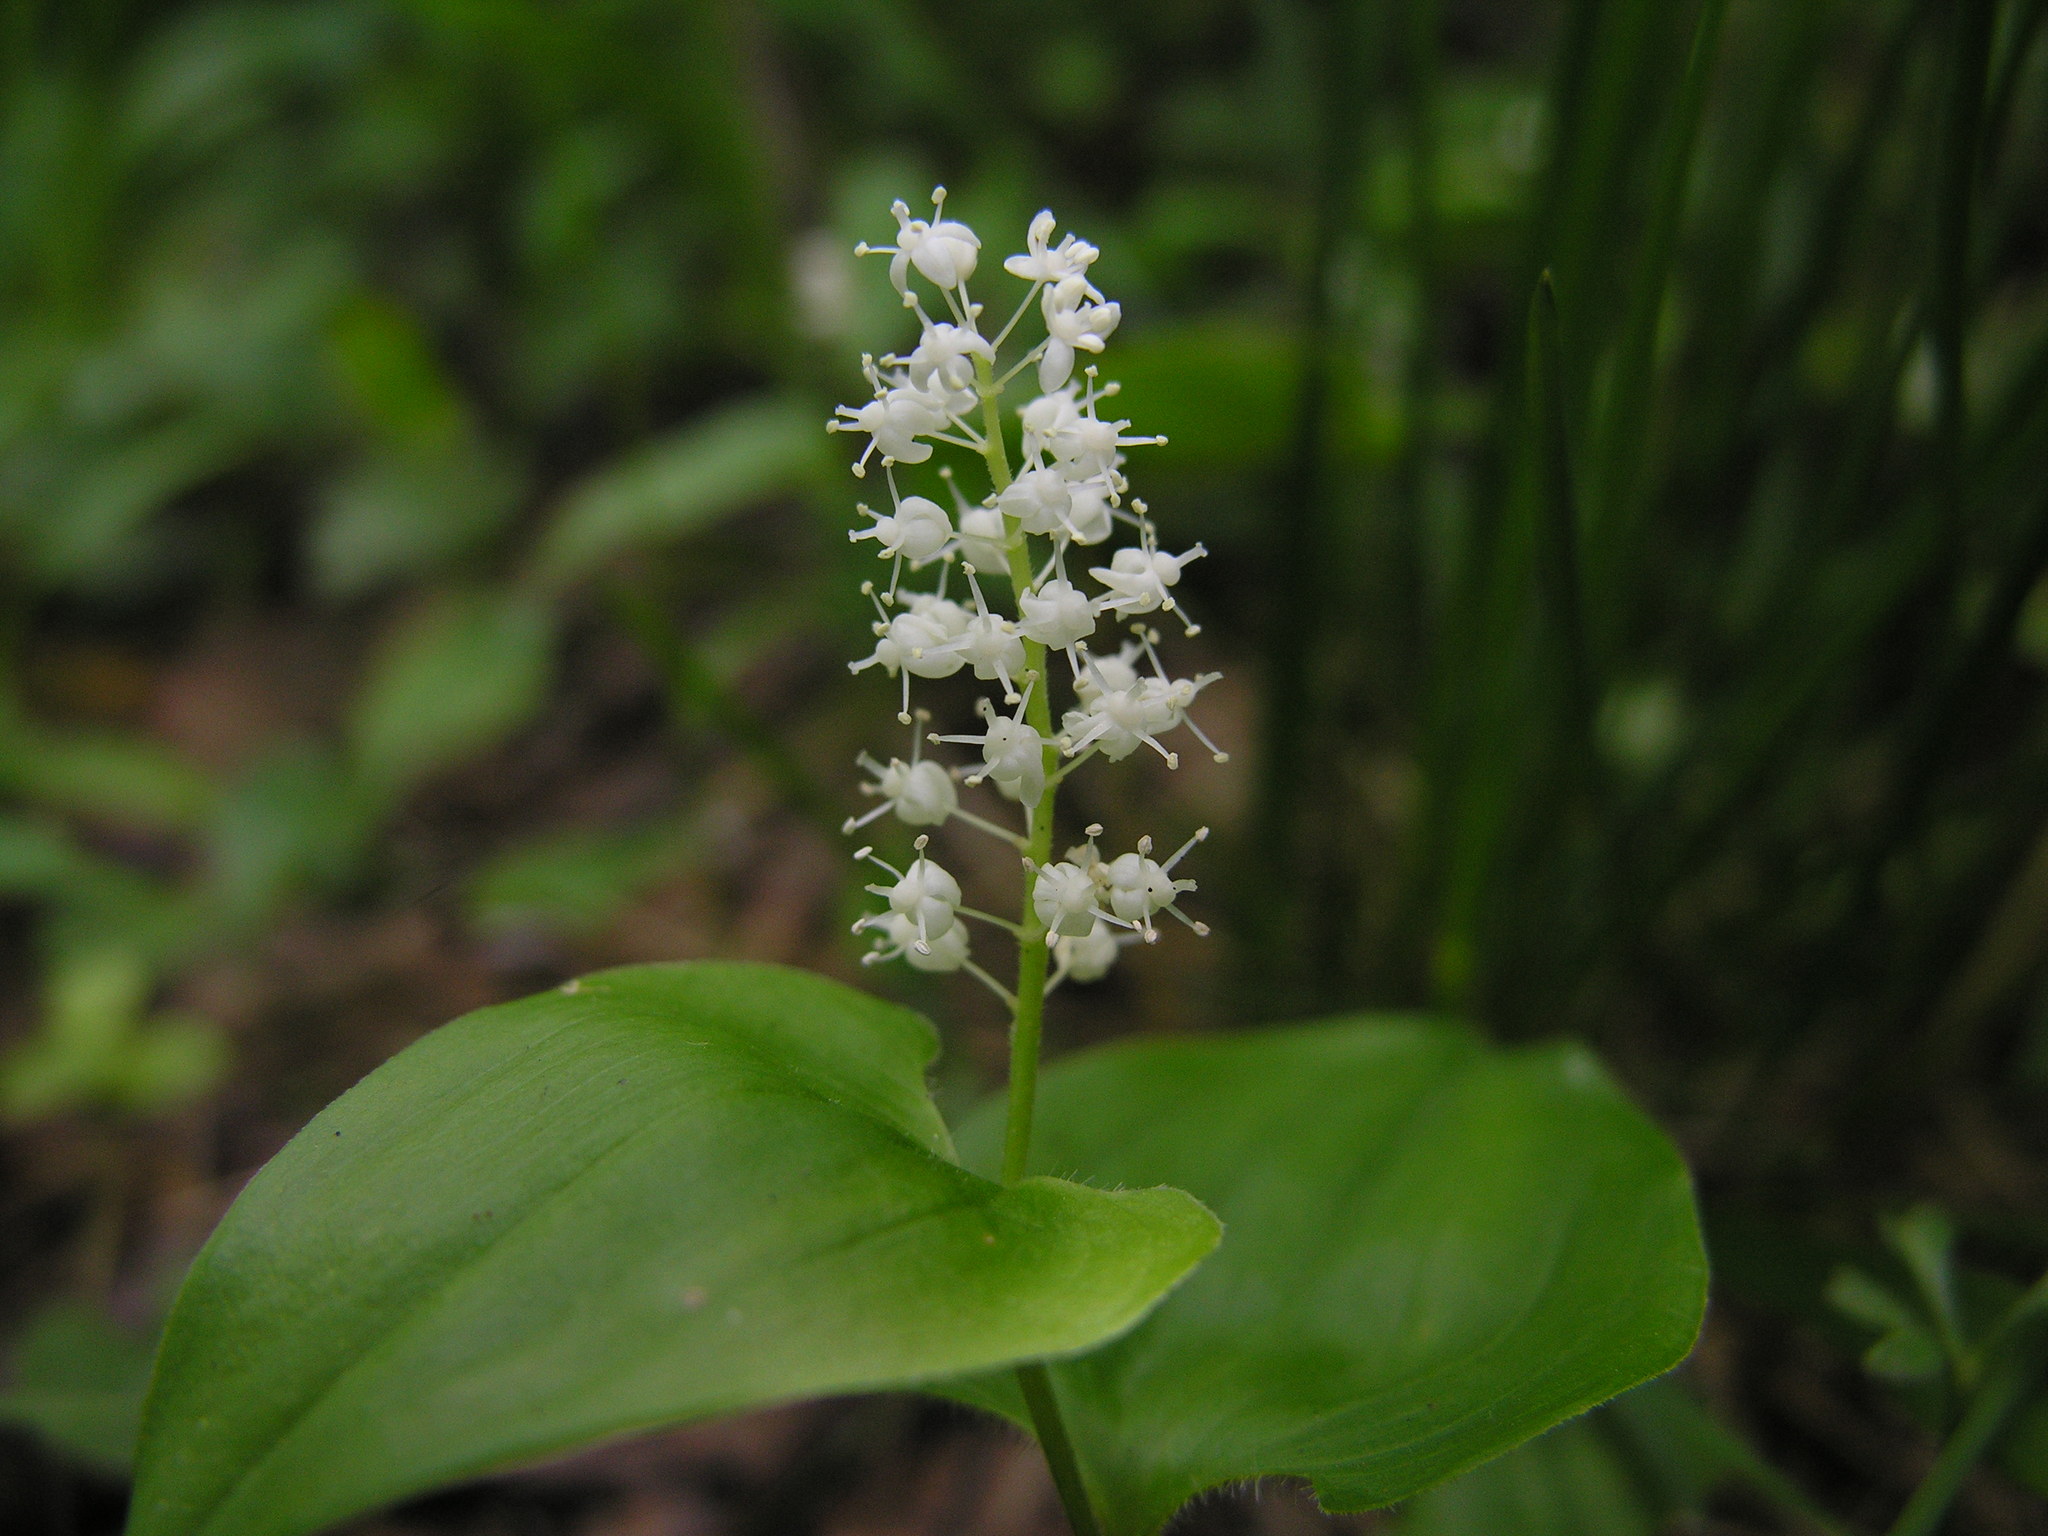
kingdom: Plantae
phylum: Tracheophyta
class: Liliopsida
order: Asparagales
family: Asparagaceae
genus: Maianthemum
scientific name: Maianthemum bifolium
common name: May lily
